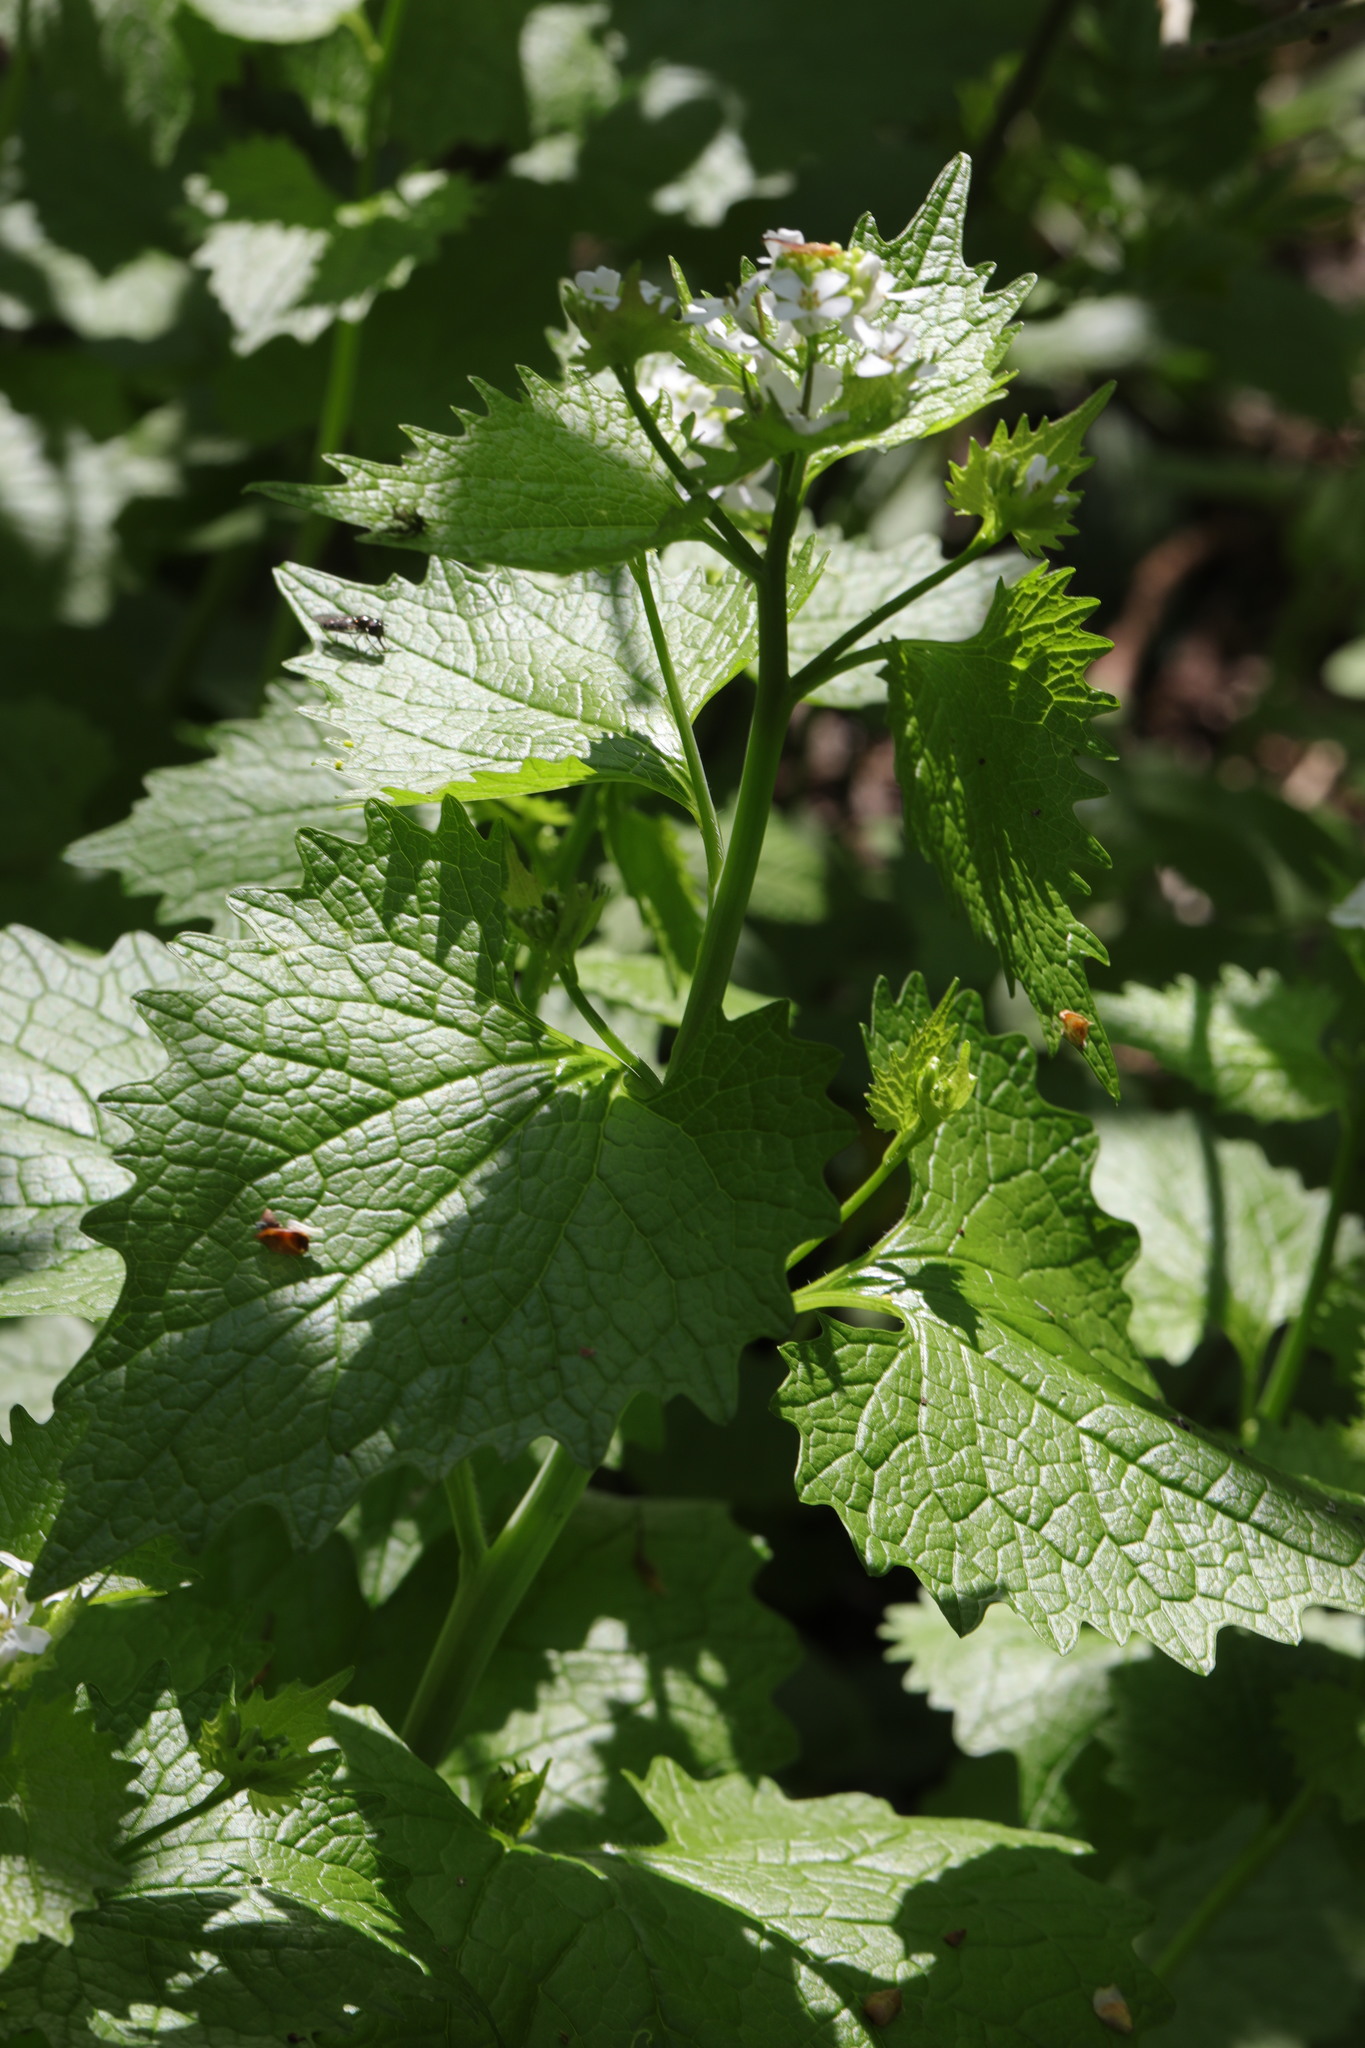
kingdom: Plantae
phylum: Tracheophyta
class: Magnoliopsida
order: Brassicales
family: Brassicaceae
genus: Alliaria
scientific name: Alliaria petiolata
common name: Garlic mustard
